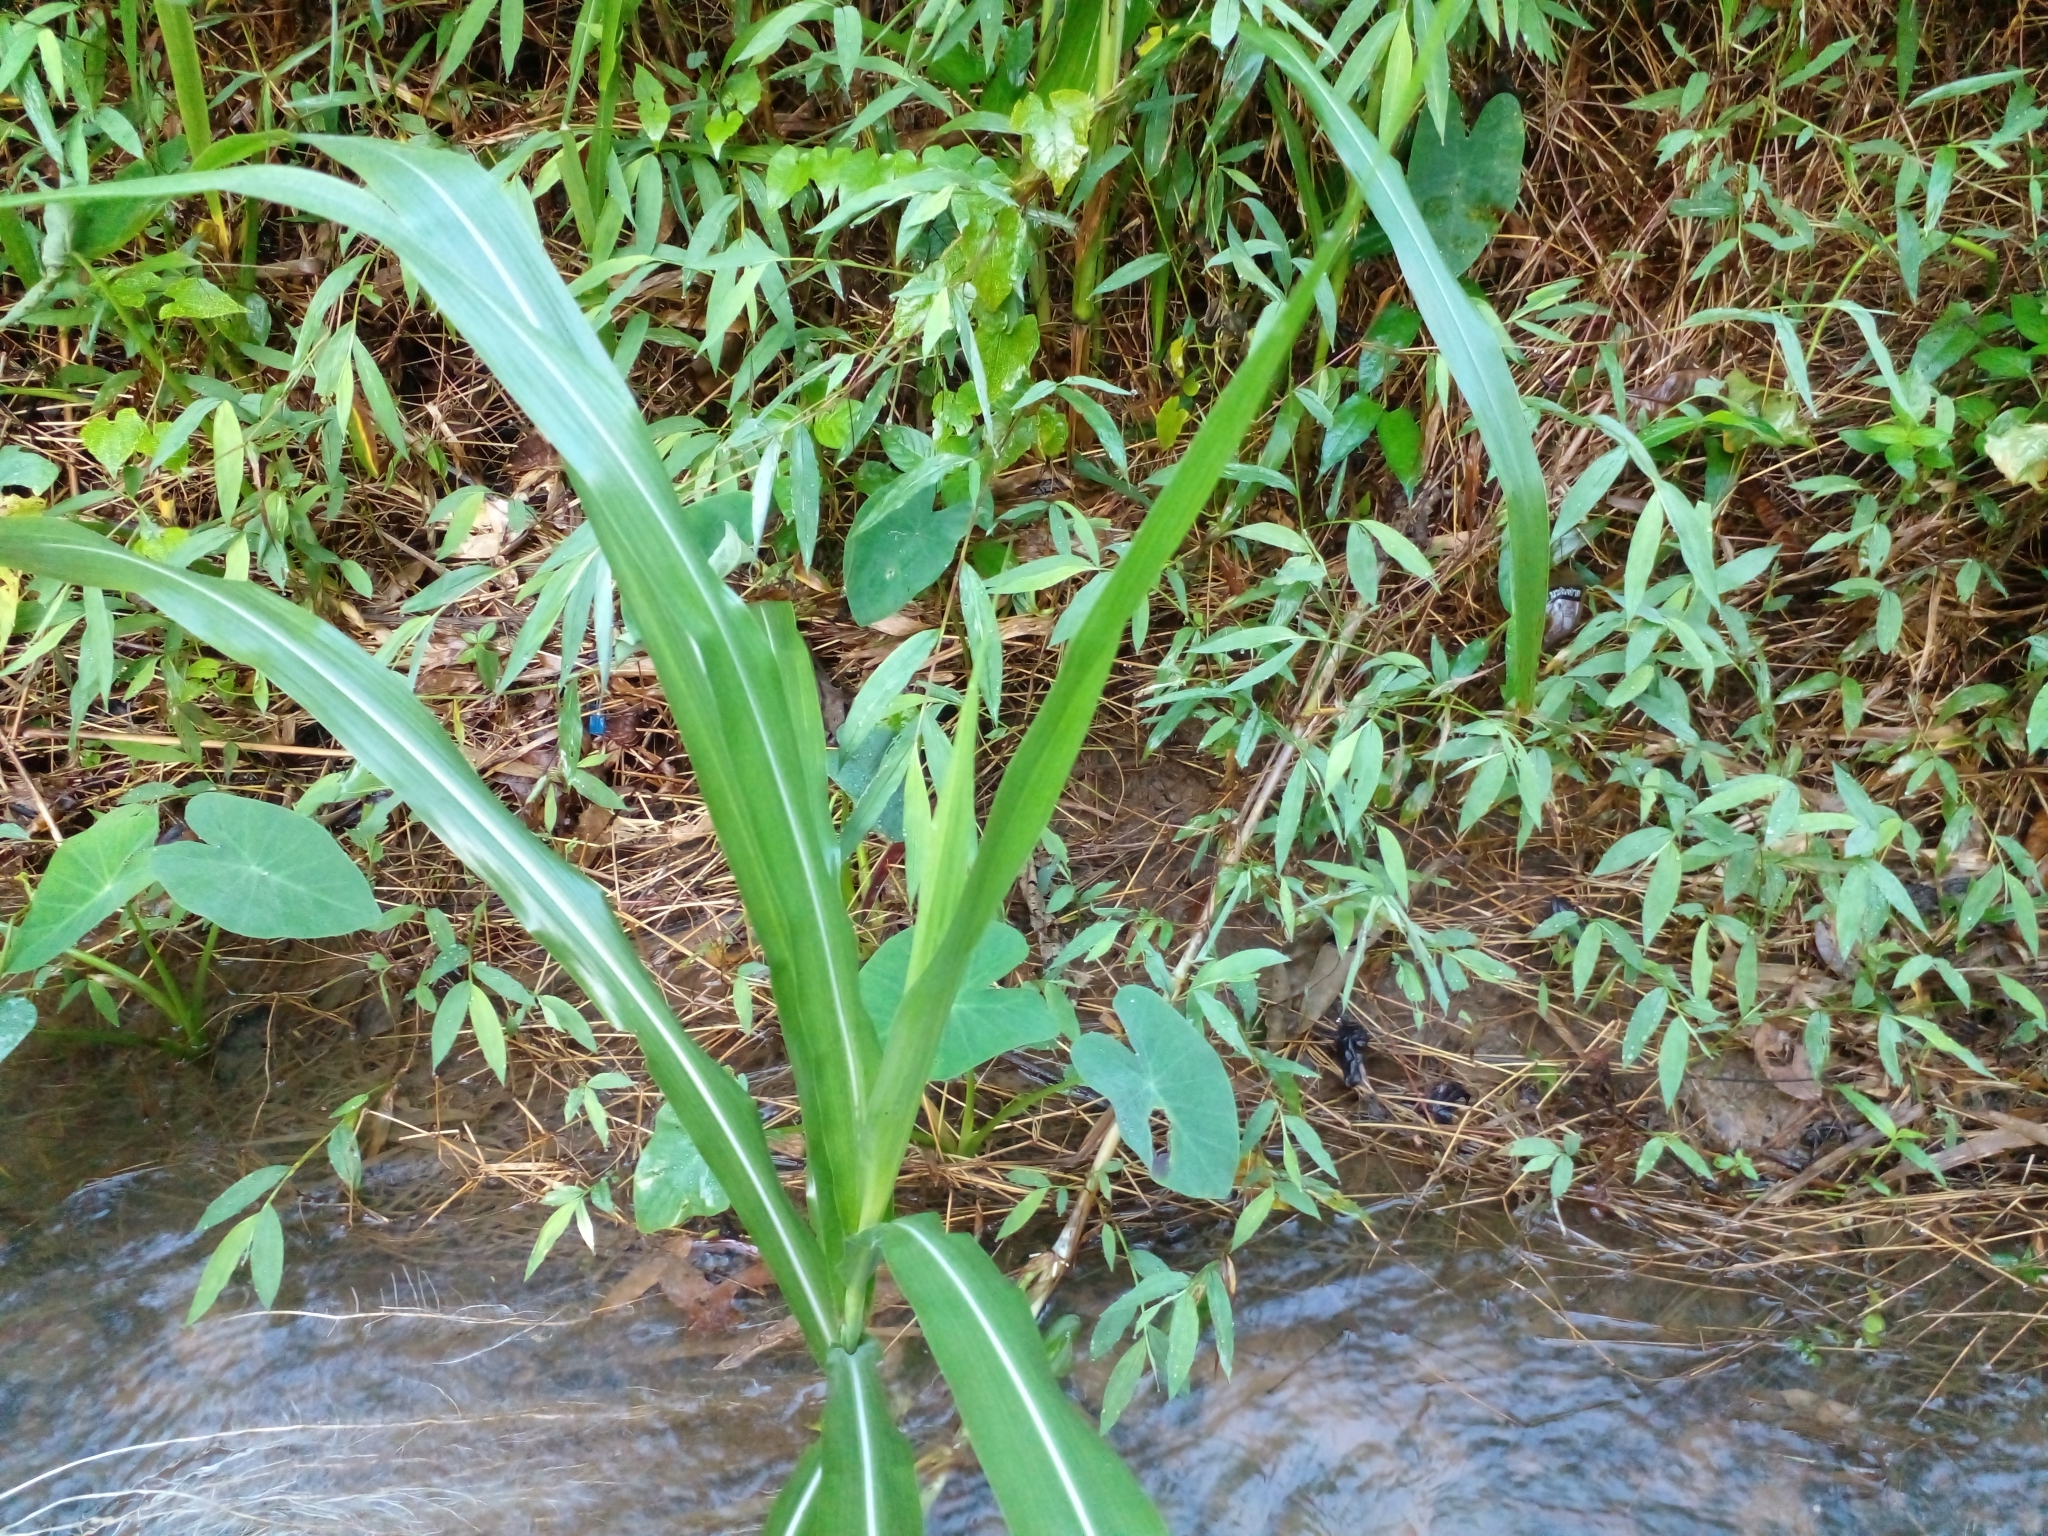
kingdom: Plantae
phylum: Tracheophyta
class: Liliopsida
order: Poales
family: Poaceae
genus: Cenchrus
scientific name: Cenchrus purpureus
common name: Elephant grass
